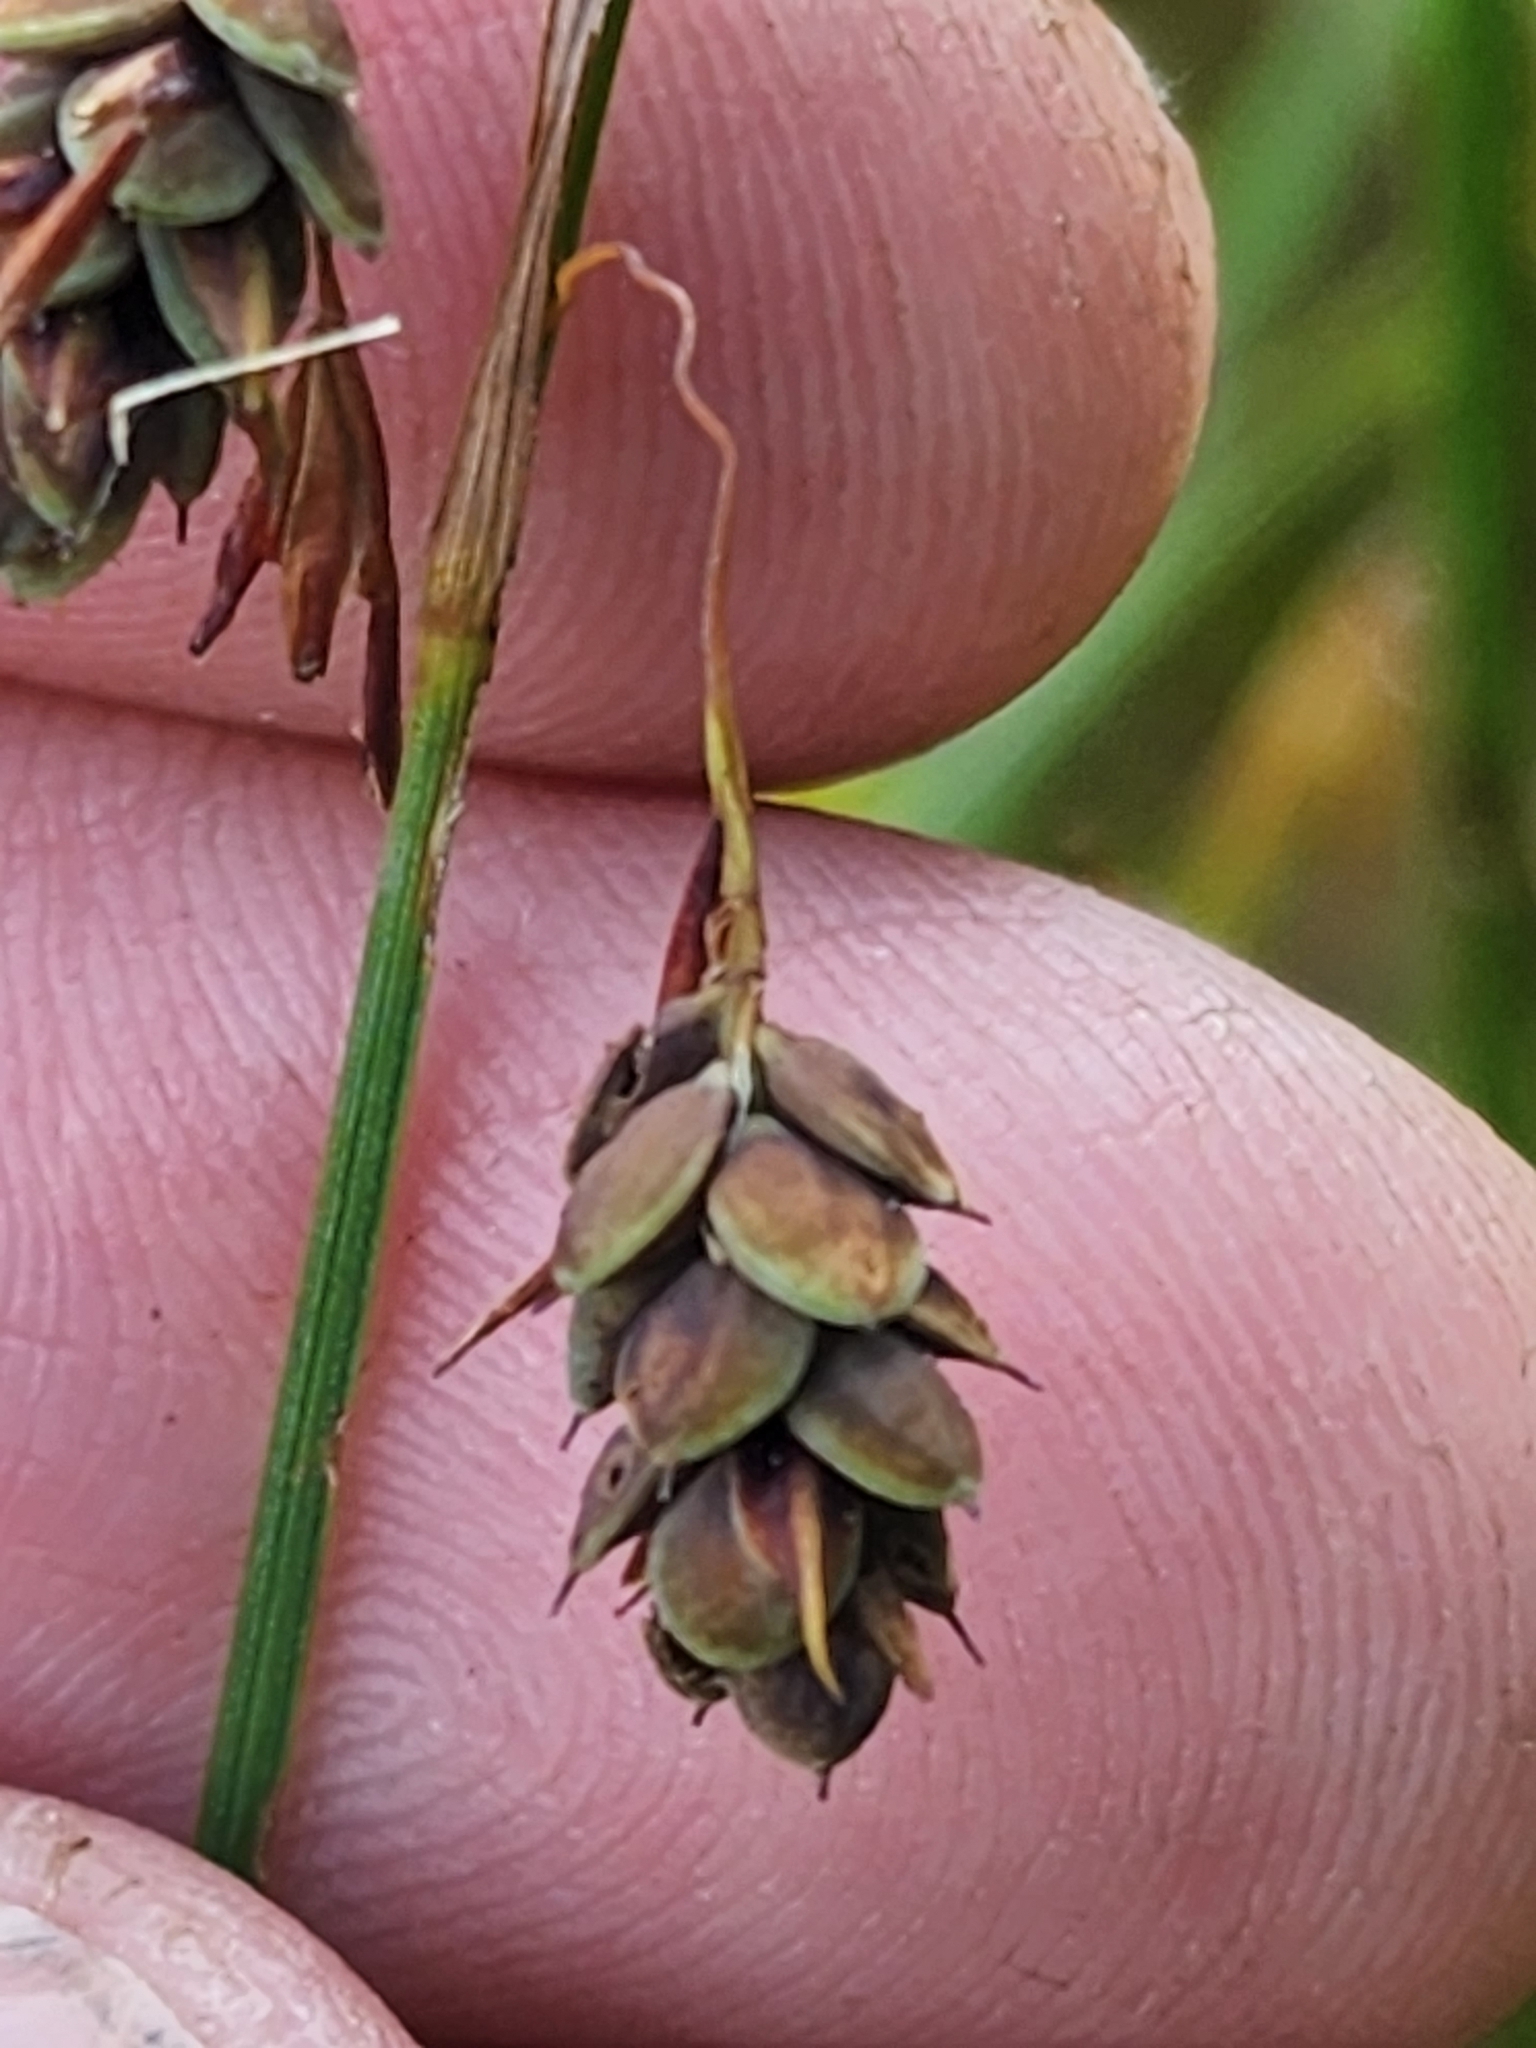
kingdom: Plantae
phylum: Tracheophyta
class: Liliopsida
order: Poales
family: Cyperaceae
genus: Carex
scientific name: Carex magellanica
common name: Bog sedge
